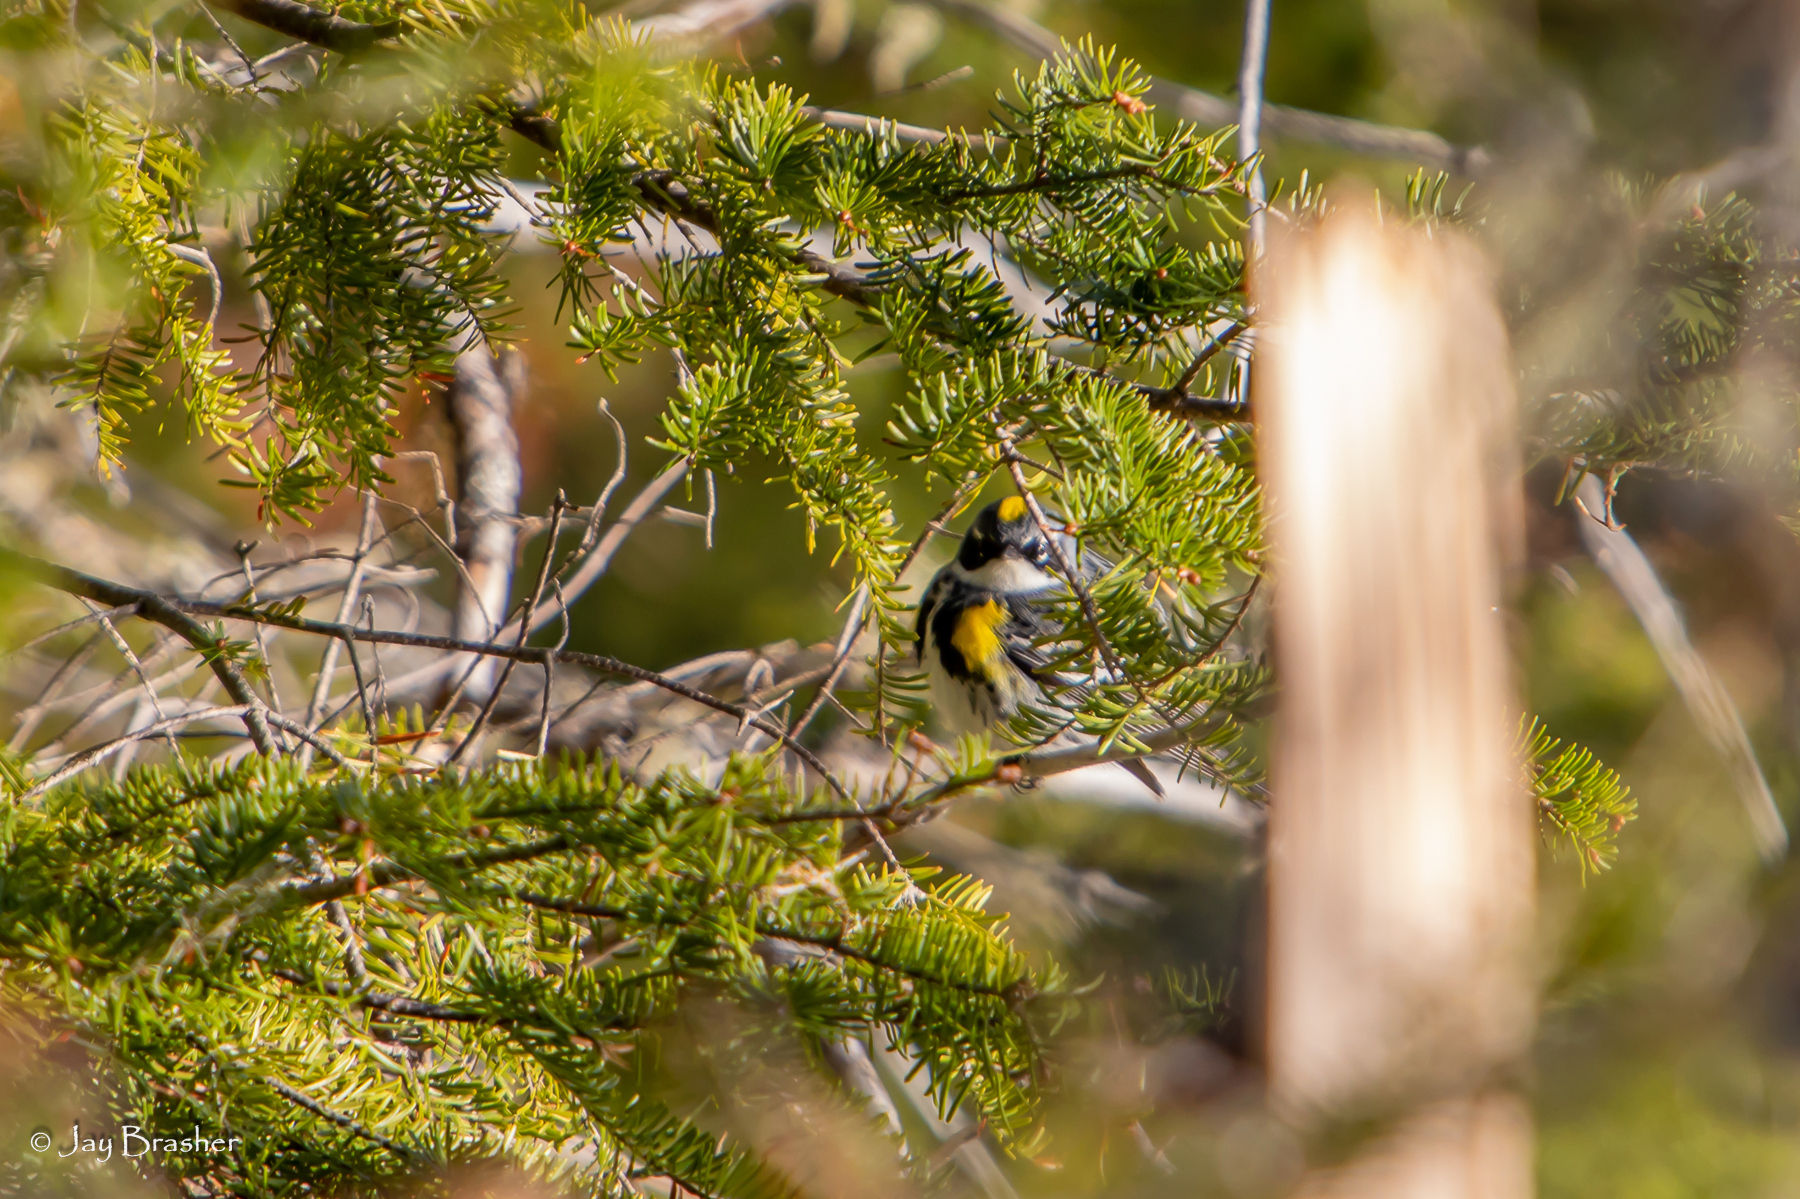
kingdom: Animalia
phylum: Chordata
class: Aves
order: Passeriformes
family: Parulidae
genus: Setophaga
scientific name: Setophaga coronata
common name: Myrtle warbler
